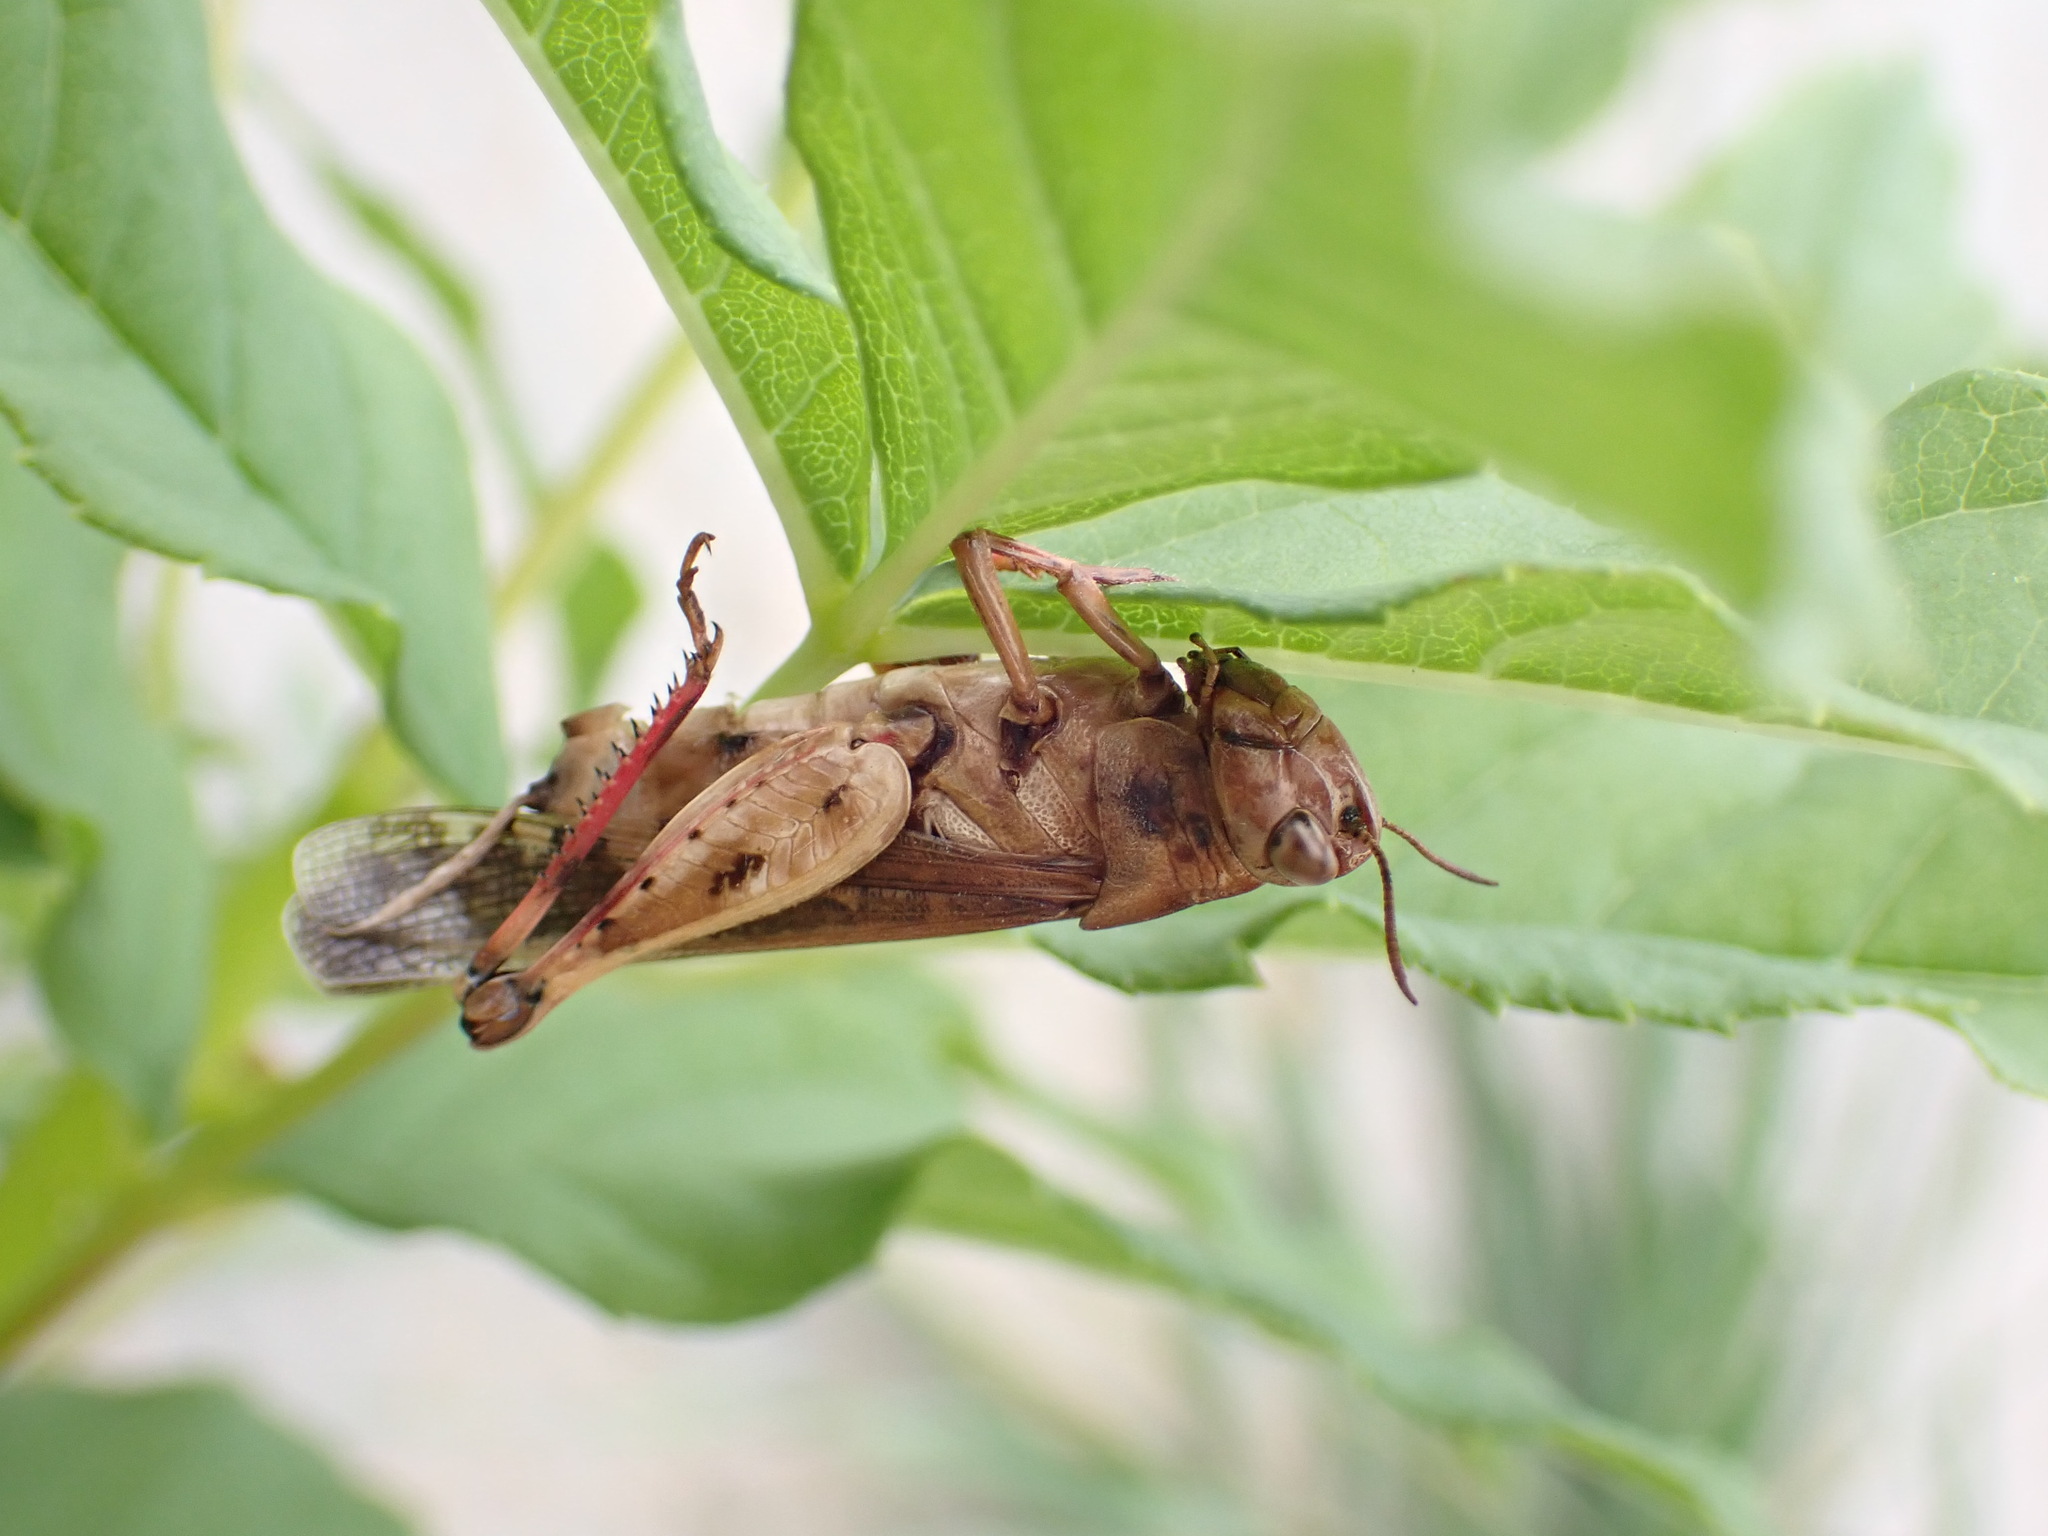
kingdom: Animalia
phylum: Arthropoda
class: Insecta
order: Orthoptera
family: Acrididae
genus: Aiolopus
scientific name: Aiolopus strepens
